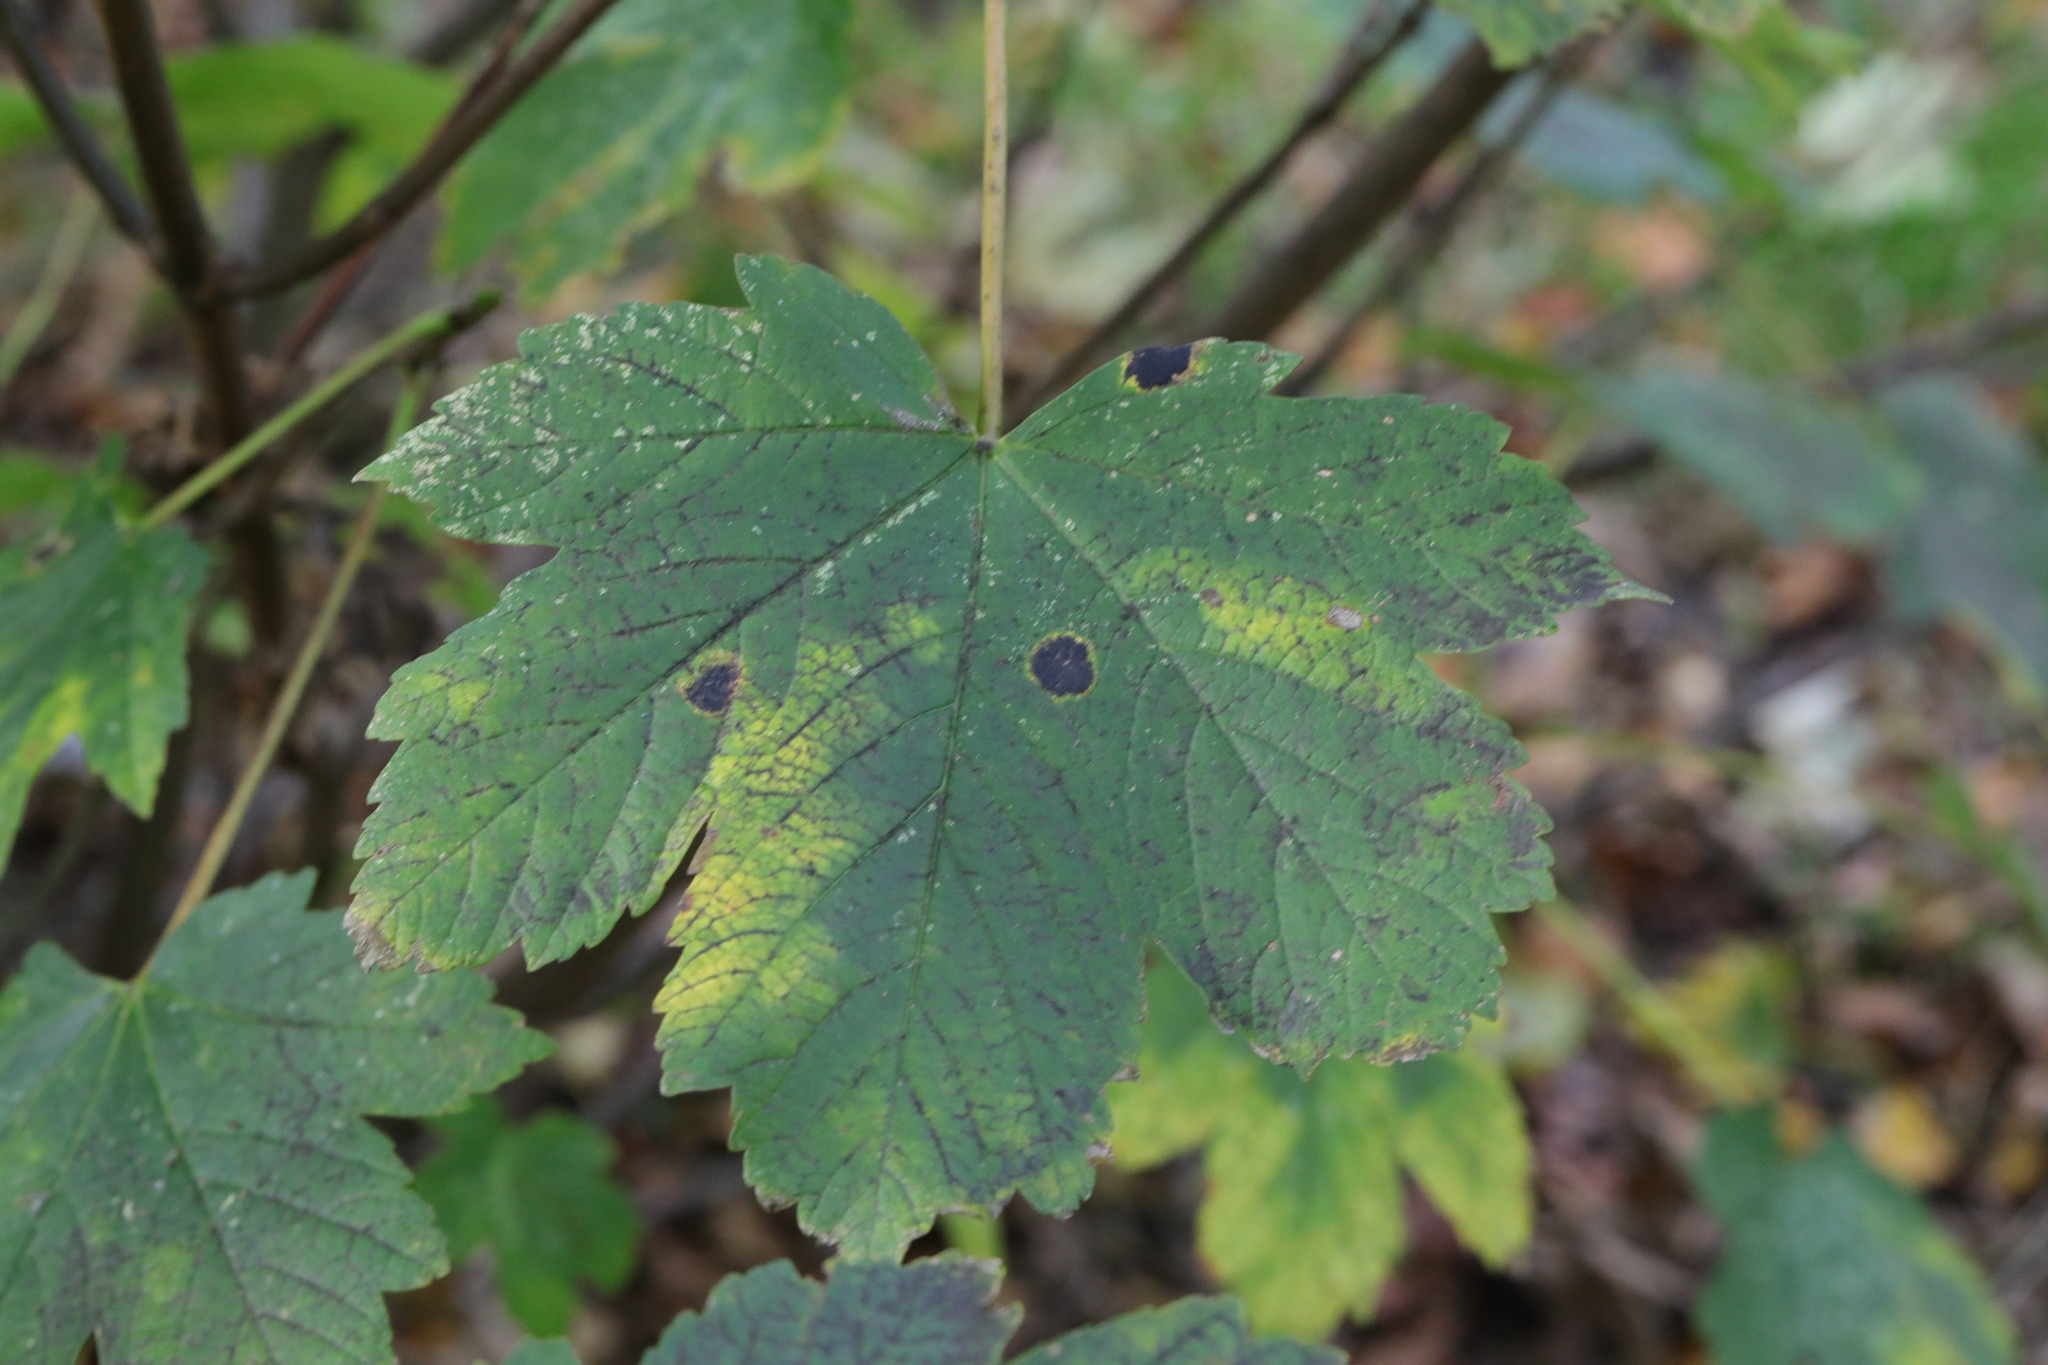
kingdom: Plantae
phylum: Tracheophyta
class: Magnoliopsida
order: Sapindales
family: Sapindaceae
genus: Acer
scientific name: Acer pseudoplatanus
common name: Sycamore
